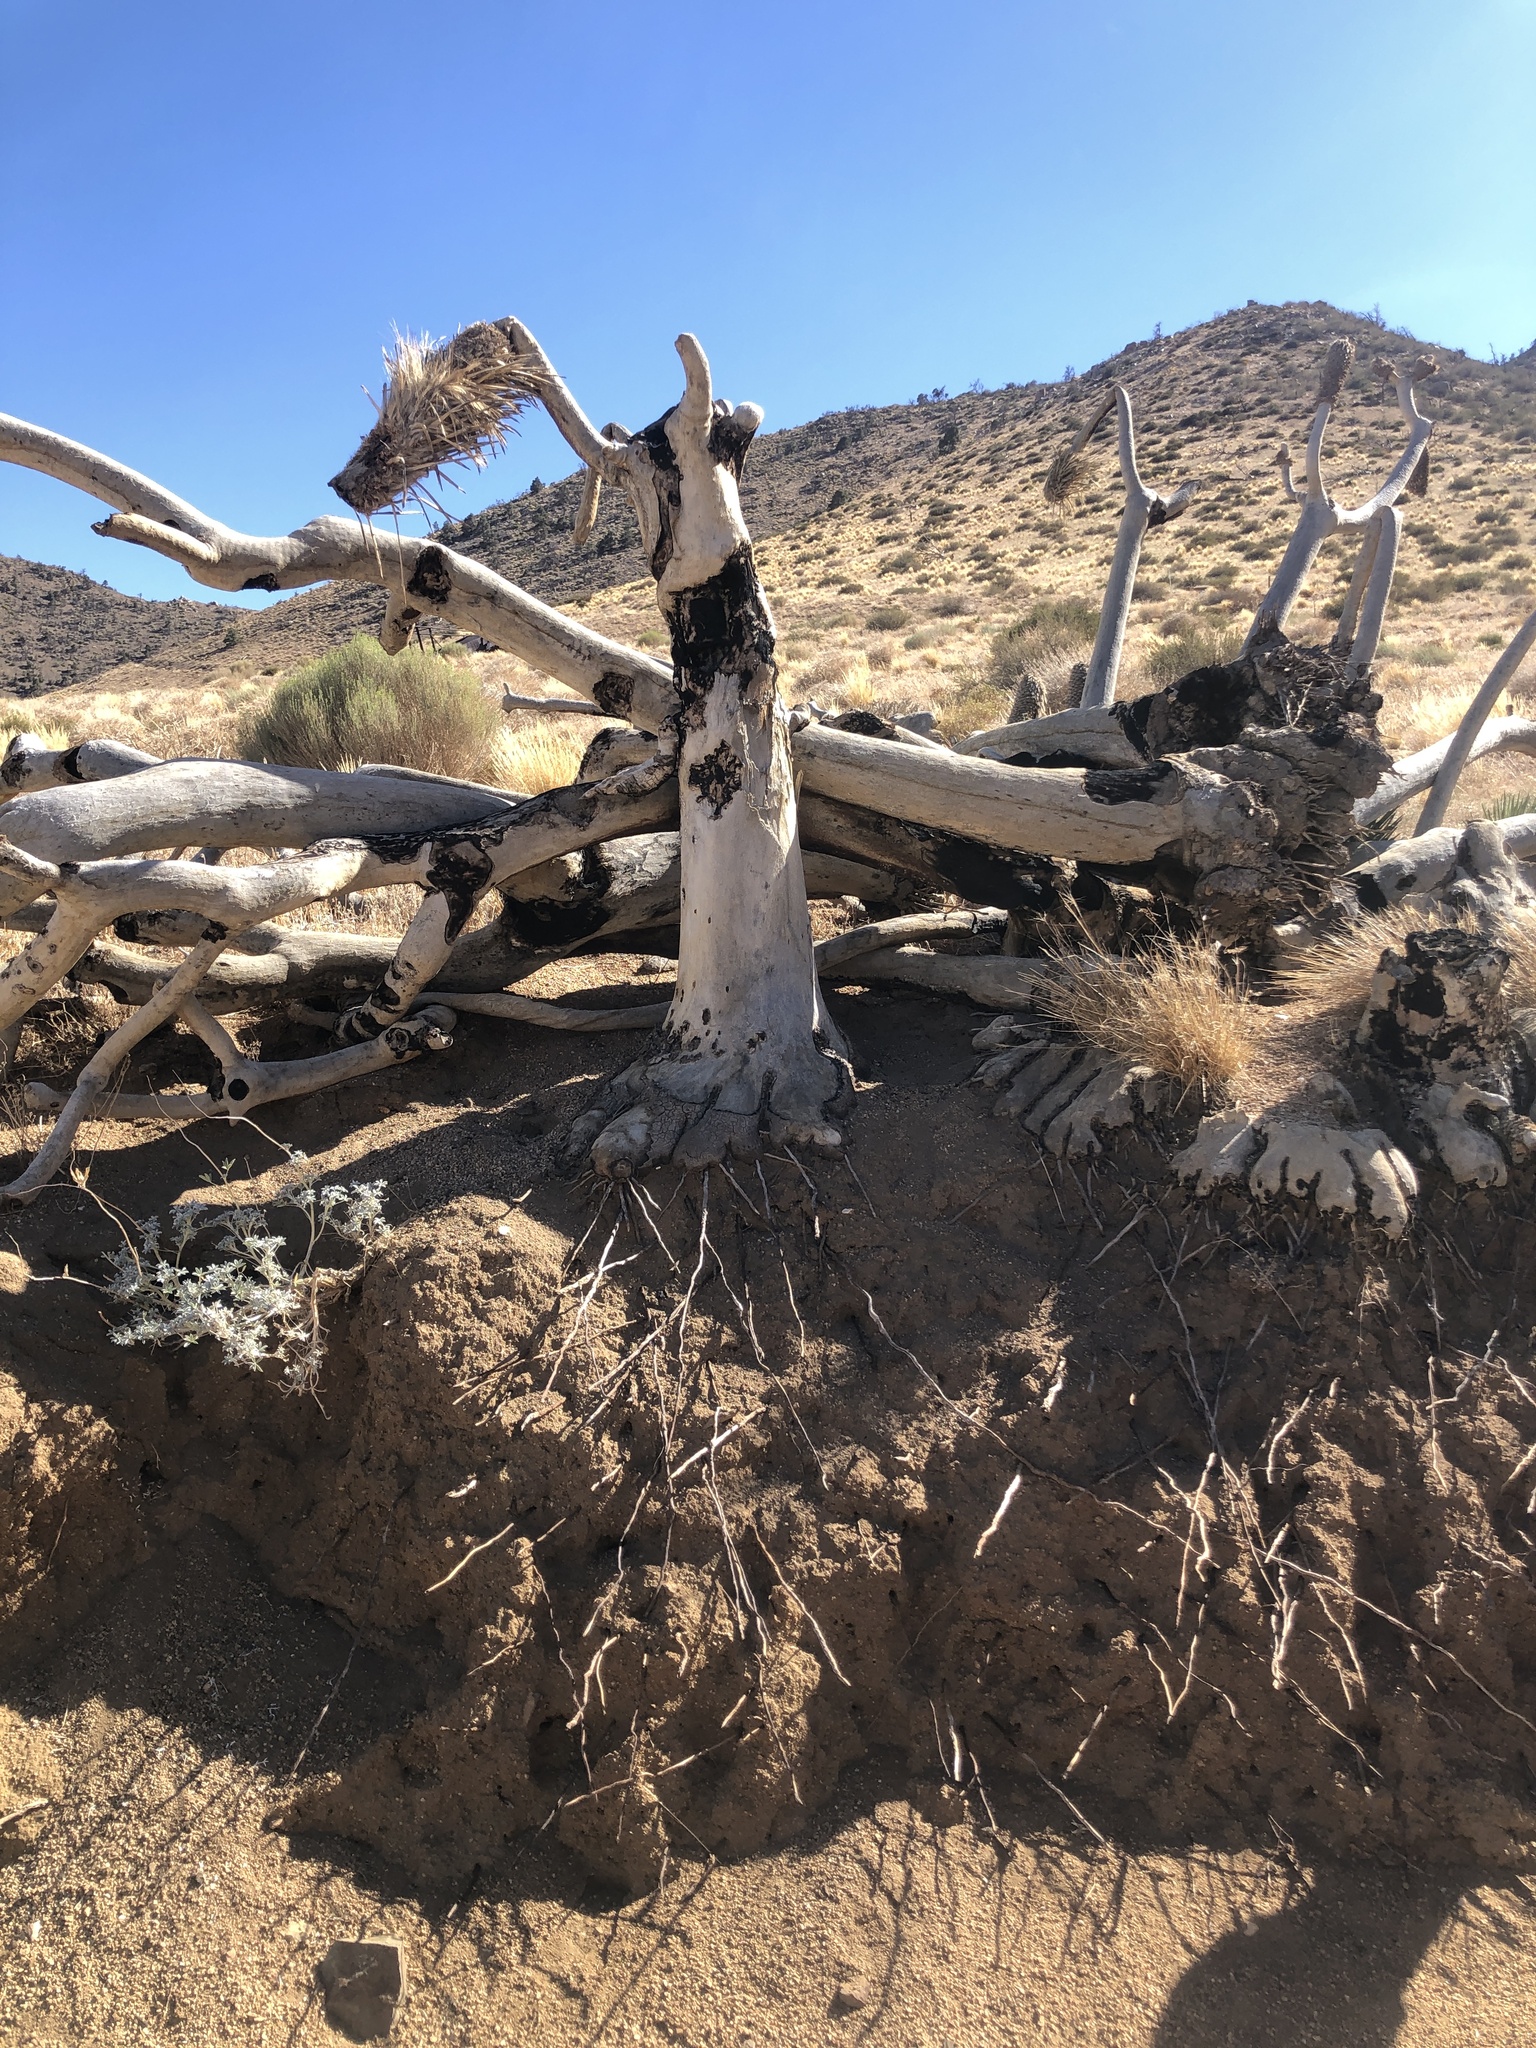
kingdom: Plantae
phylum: Tracheophyta
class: Liliopsida
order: Asparagales
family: Asparagaceae
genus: Yucca
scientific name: Yucca brevifolia
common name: Joshua tree
